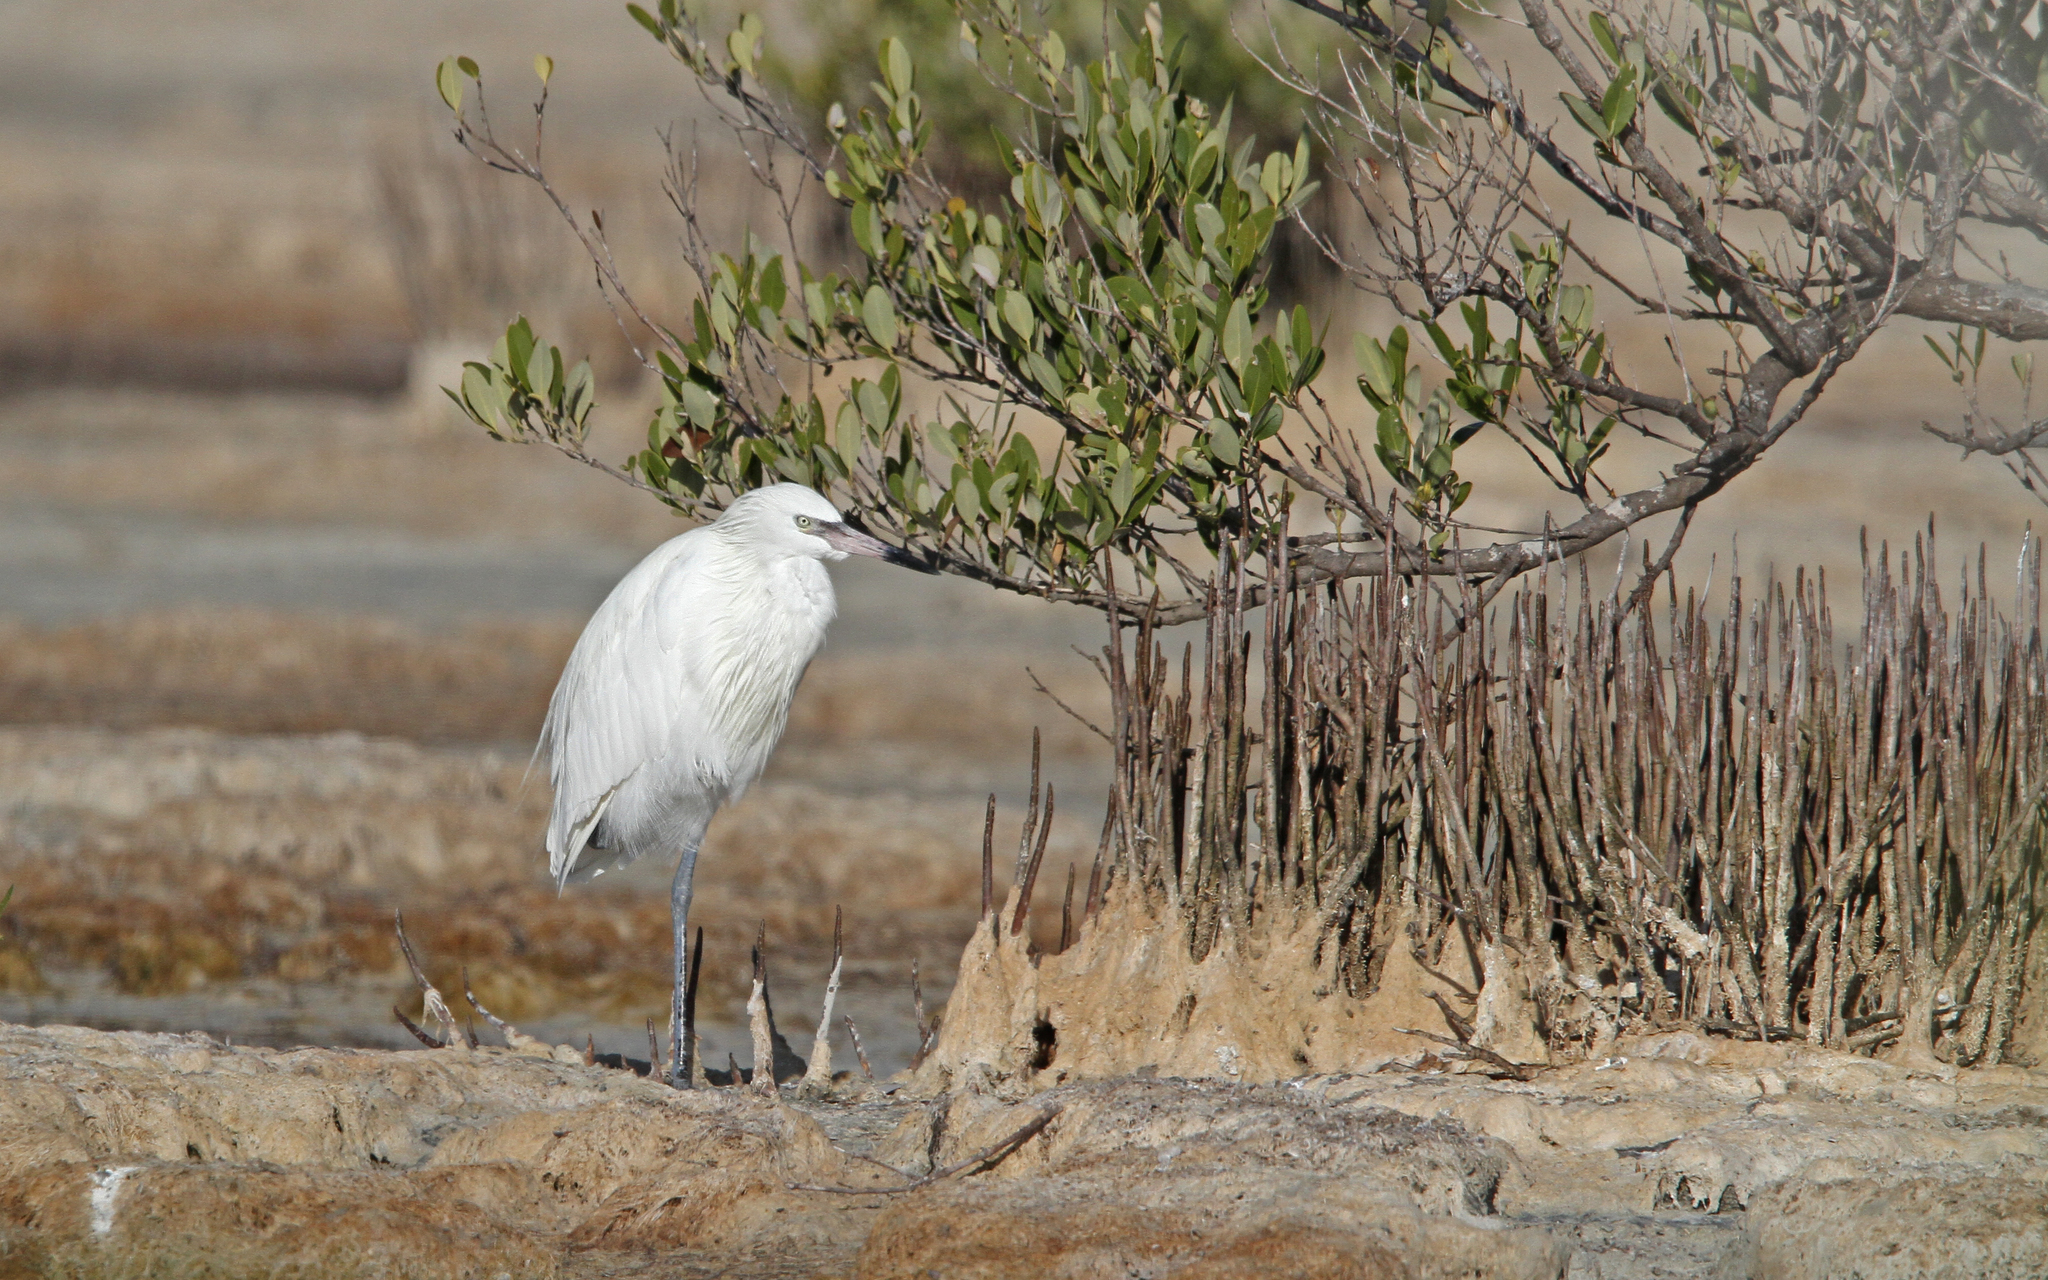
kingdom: Animalia
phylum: Chordata
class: Aves
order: Pelecaniformes
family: Ardeidae
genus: Egretta
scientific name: Egretta rufescens
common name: Reddish egret
